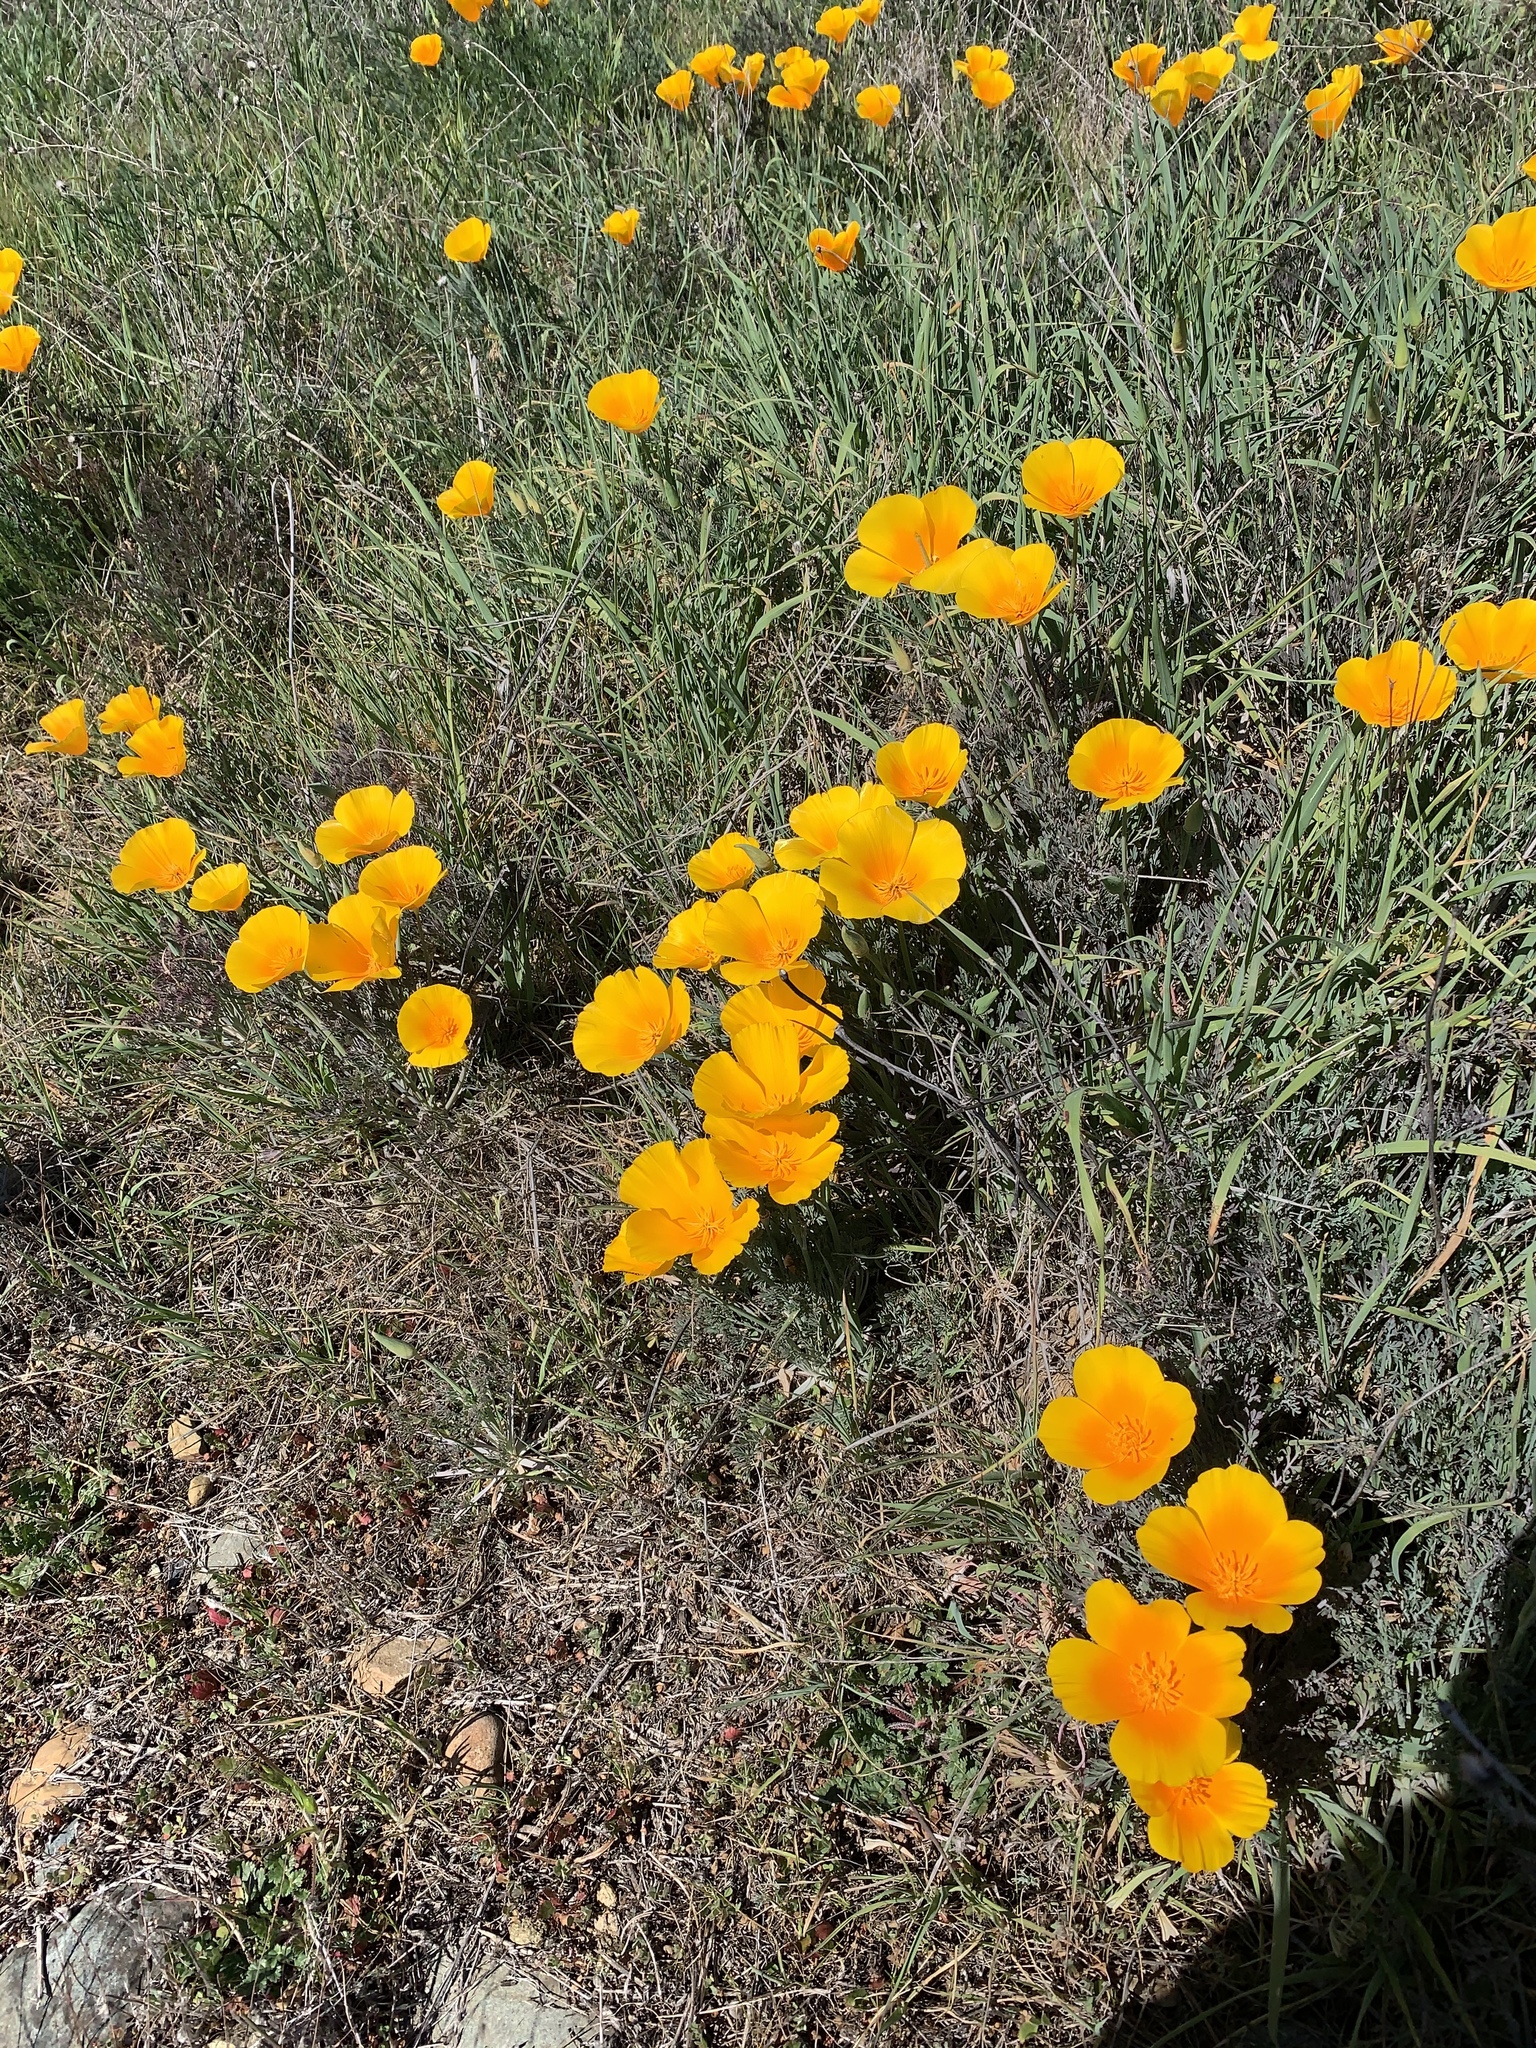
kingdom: Plantae
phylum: Tracheophyta
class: Magnoliopsida
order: Ranunculales
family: Papaveraceae
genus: Eschscholzia
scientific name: Eschscholzia californica
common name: California poppy
